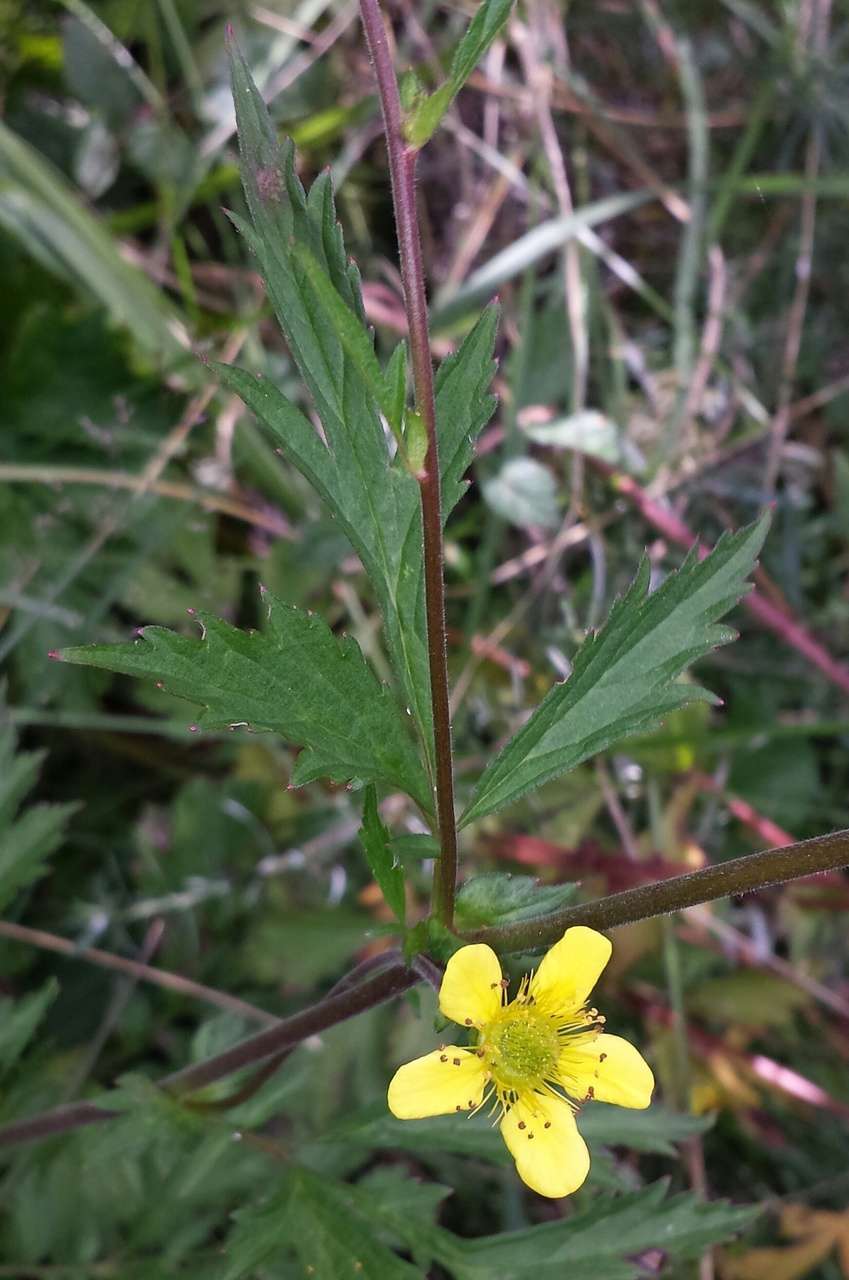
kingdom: Plantae
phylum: Tracheophyta
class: Magnoliopsida
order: Rosales
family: Rosaceae
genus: Geum
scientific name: Geum urbanum
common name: Wood avens
